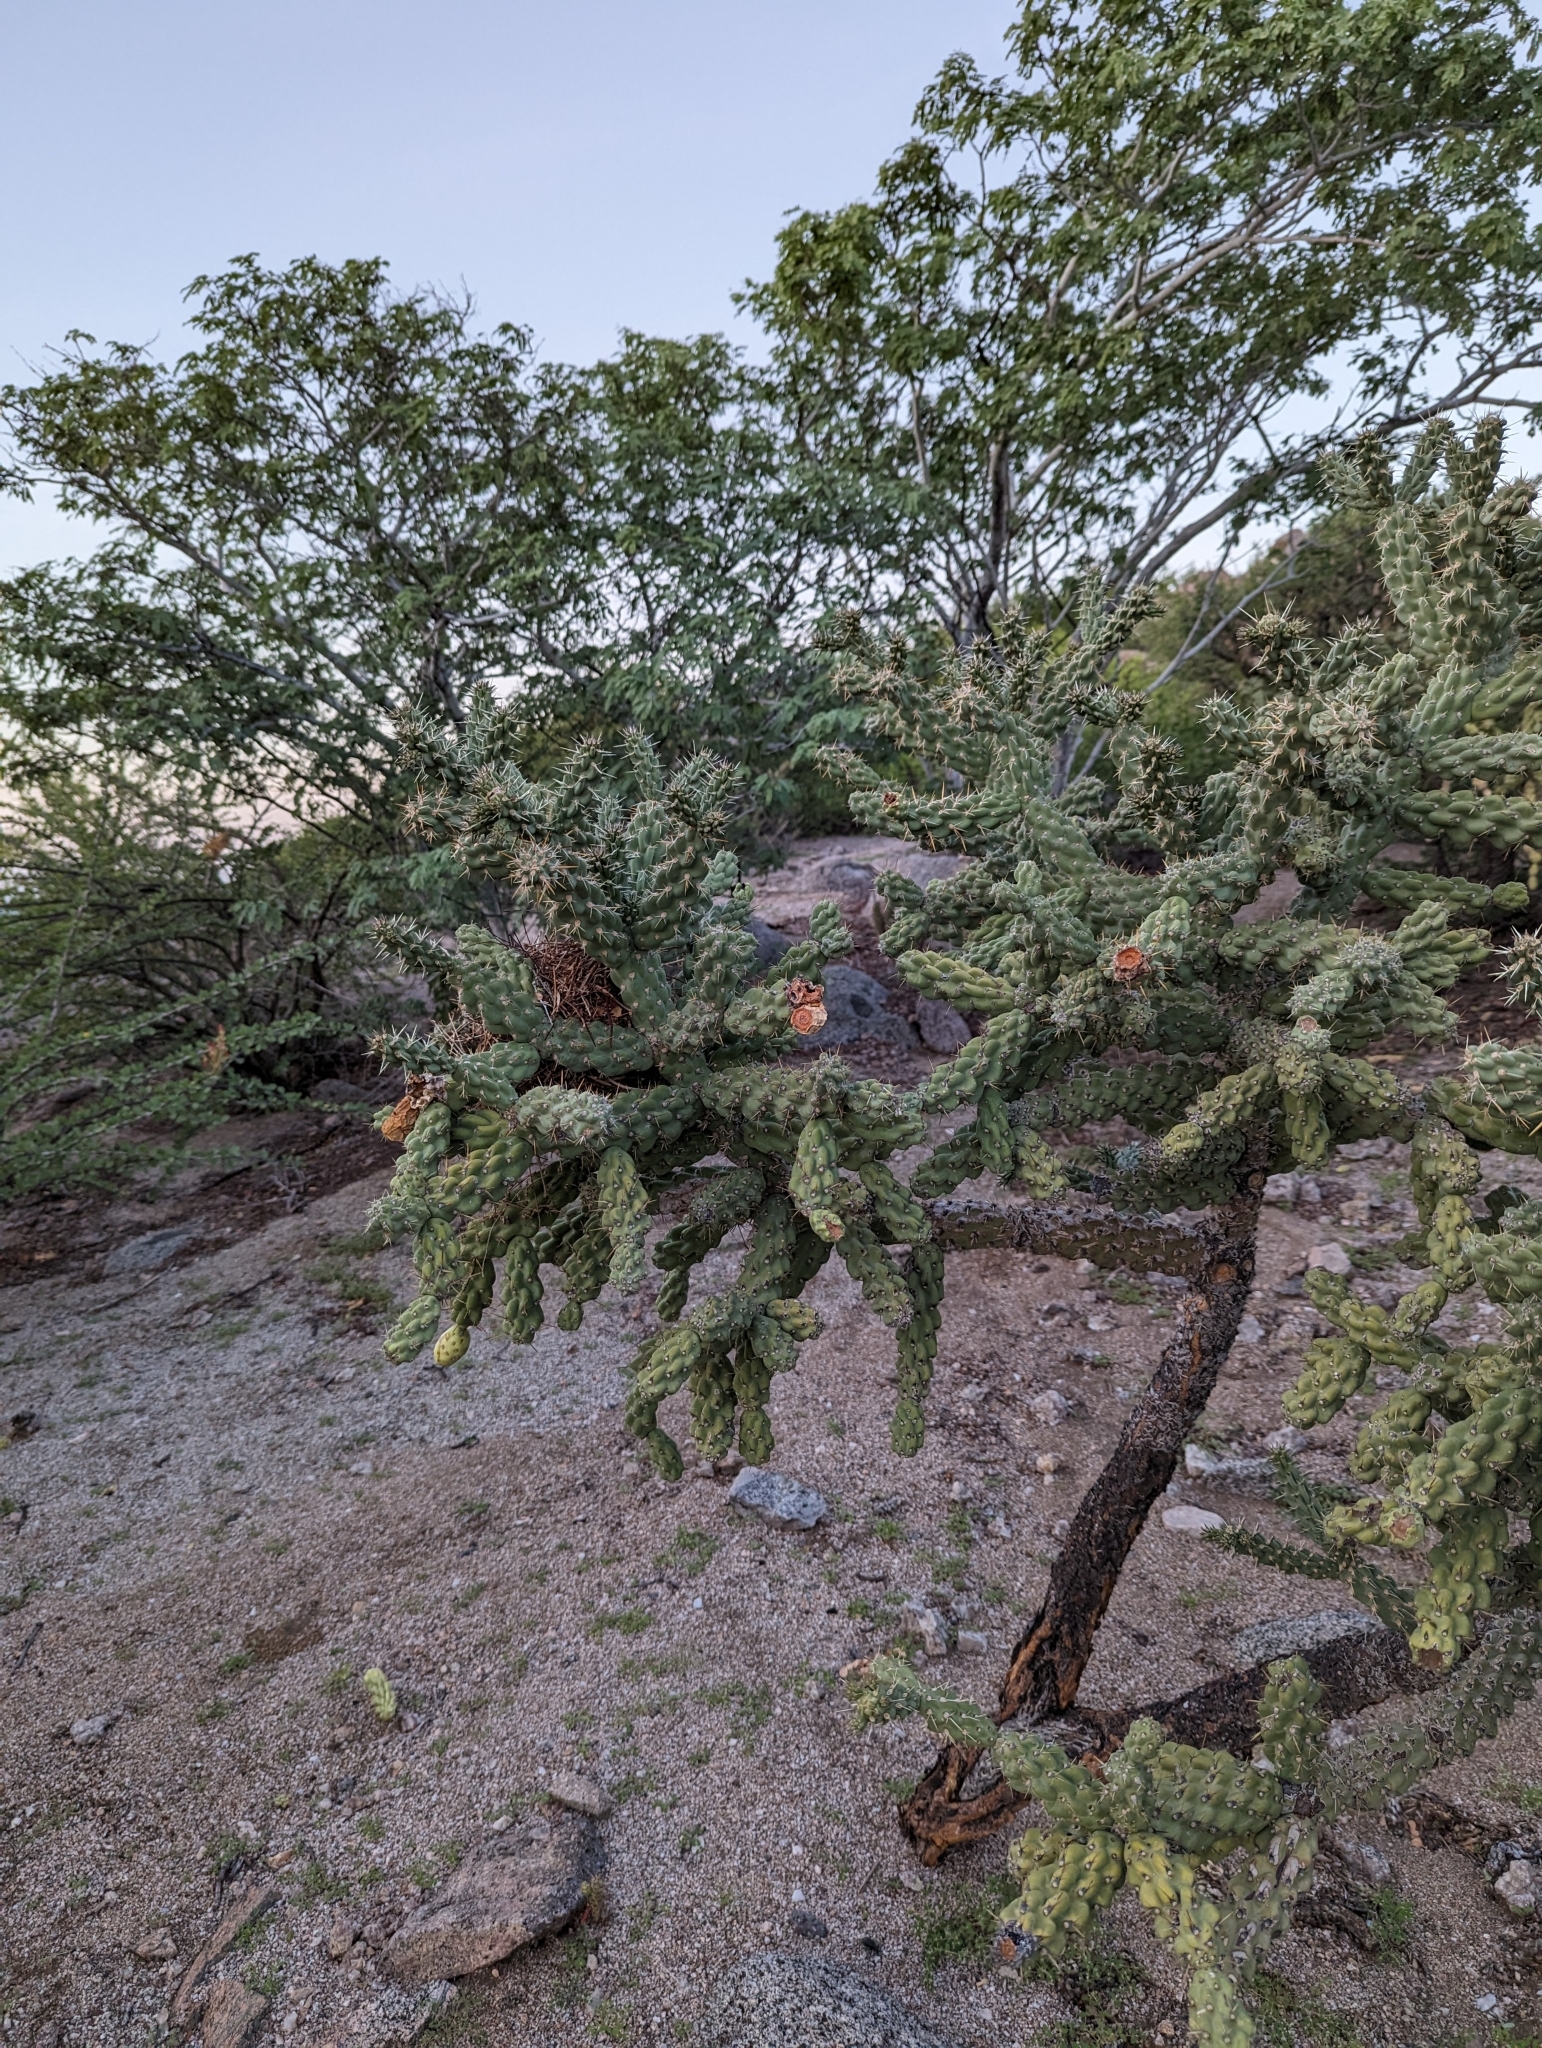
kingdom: Plantae
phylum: Tracheophyta
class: Magnoliopsida
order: Caryophyllales
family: Cactaceae
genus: Cylindropuntia
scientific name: Cylindropuntia cholla
